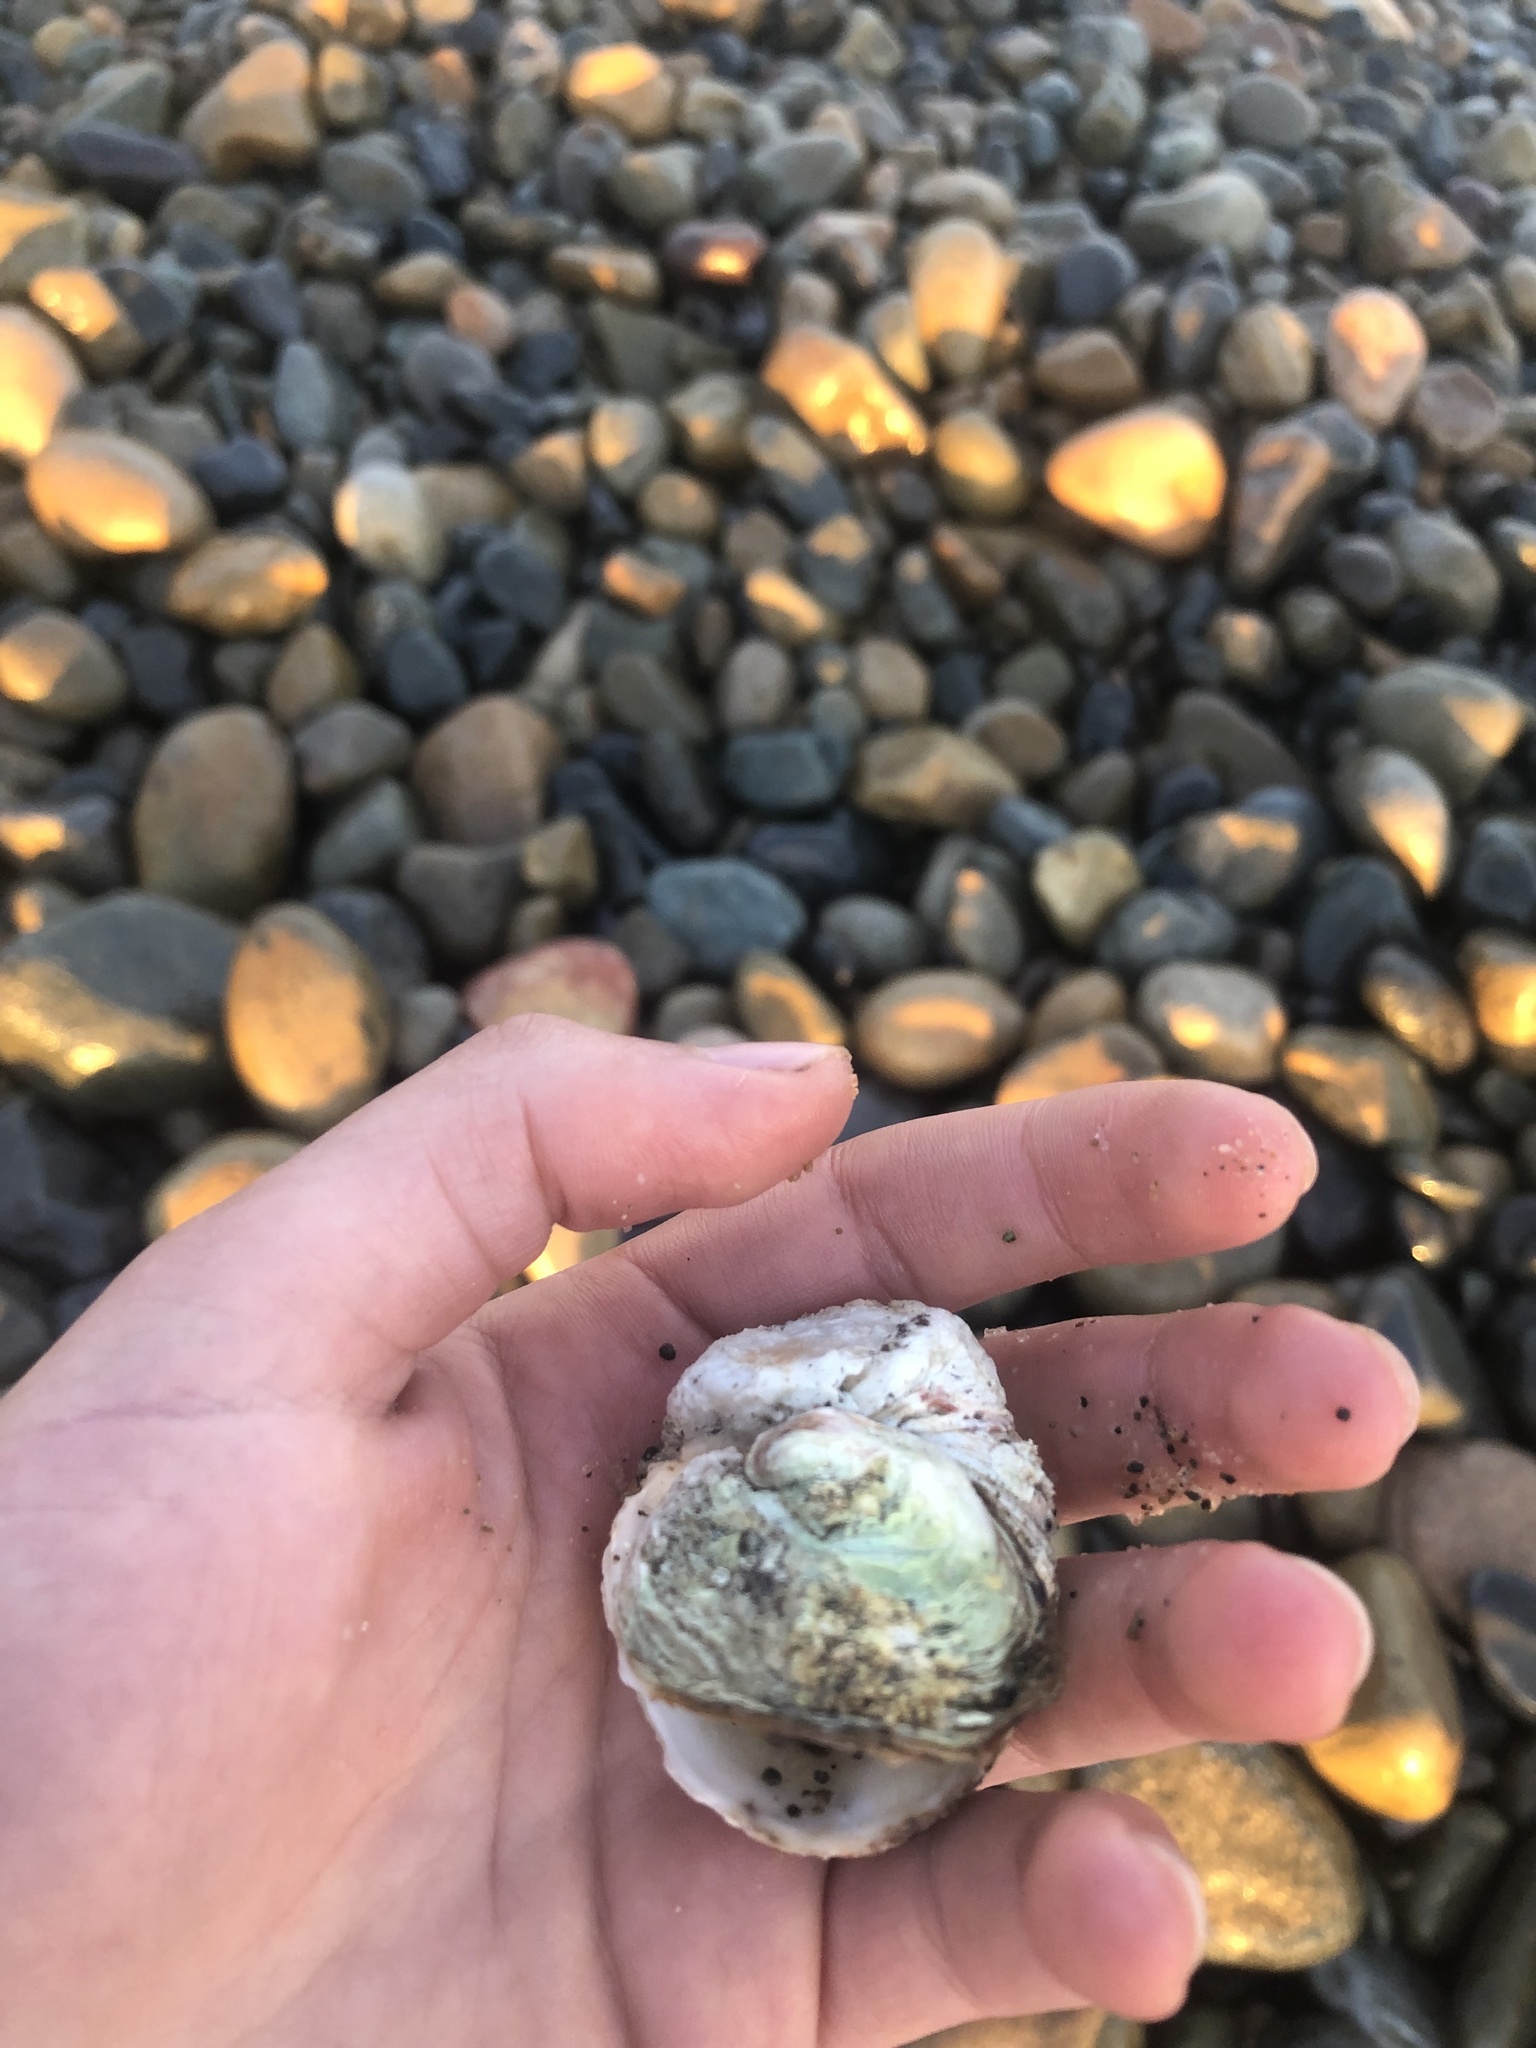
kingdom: Animalia
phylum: Mollusca
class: Bivalvia
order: Venerida
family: Chamidae
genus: Pseudochama
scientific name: Pseudochama exogyra
